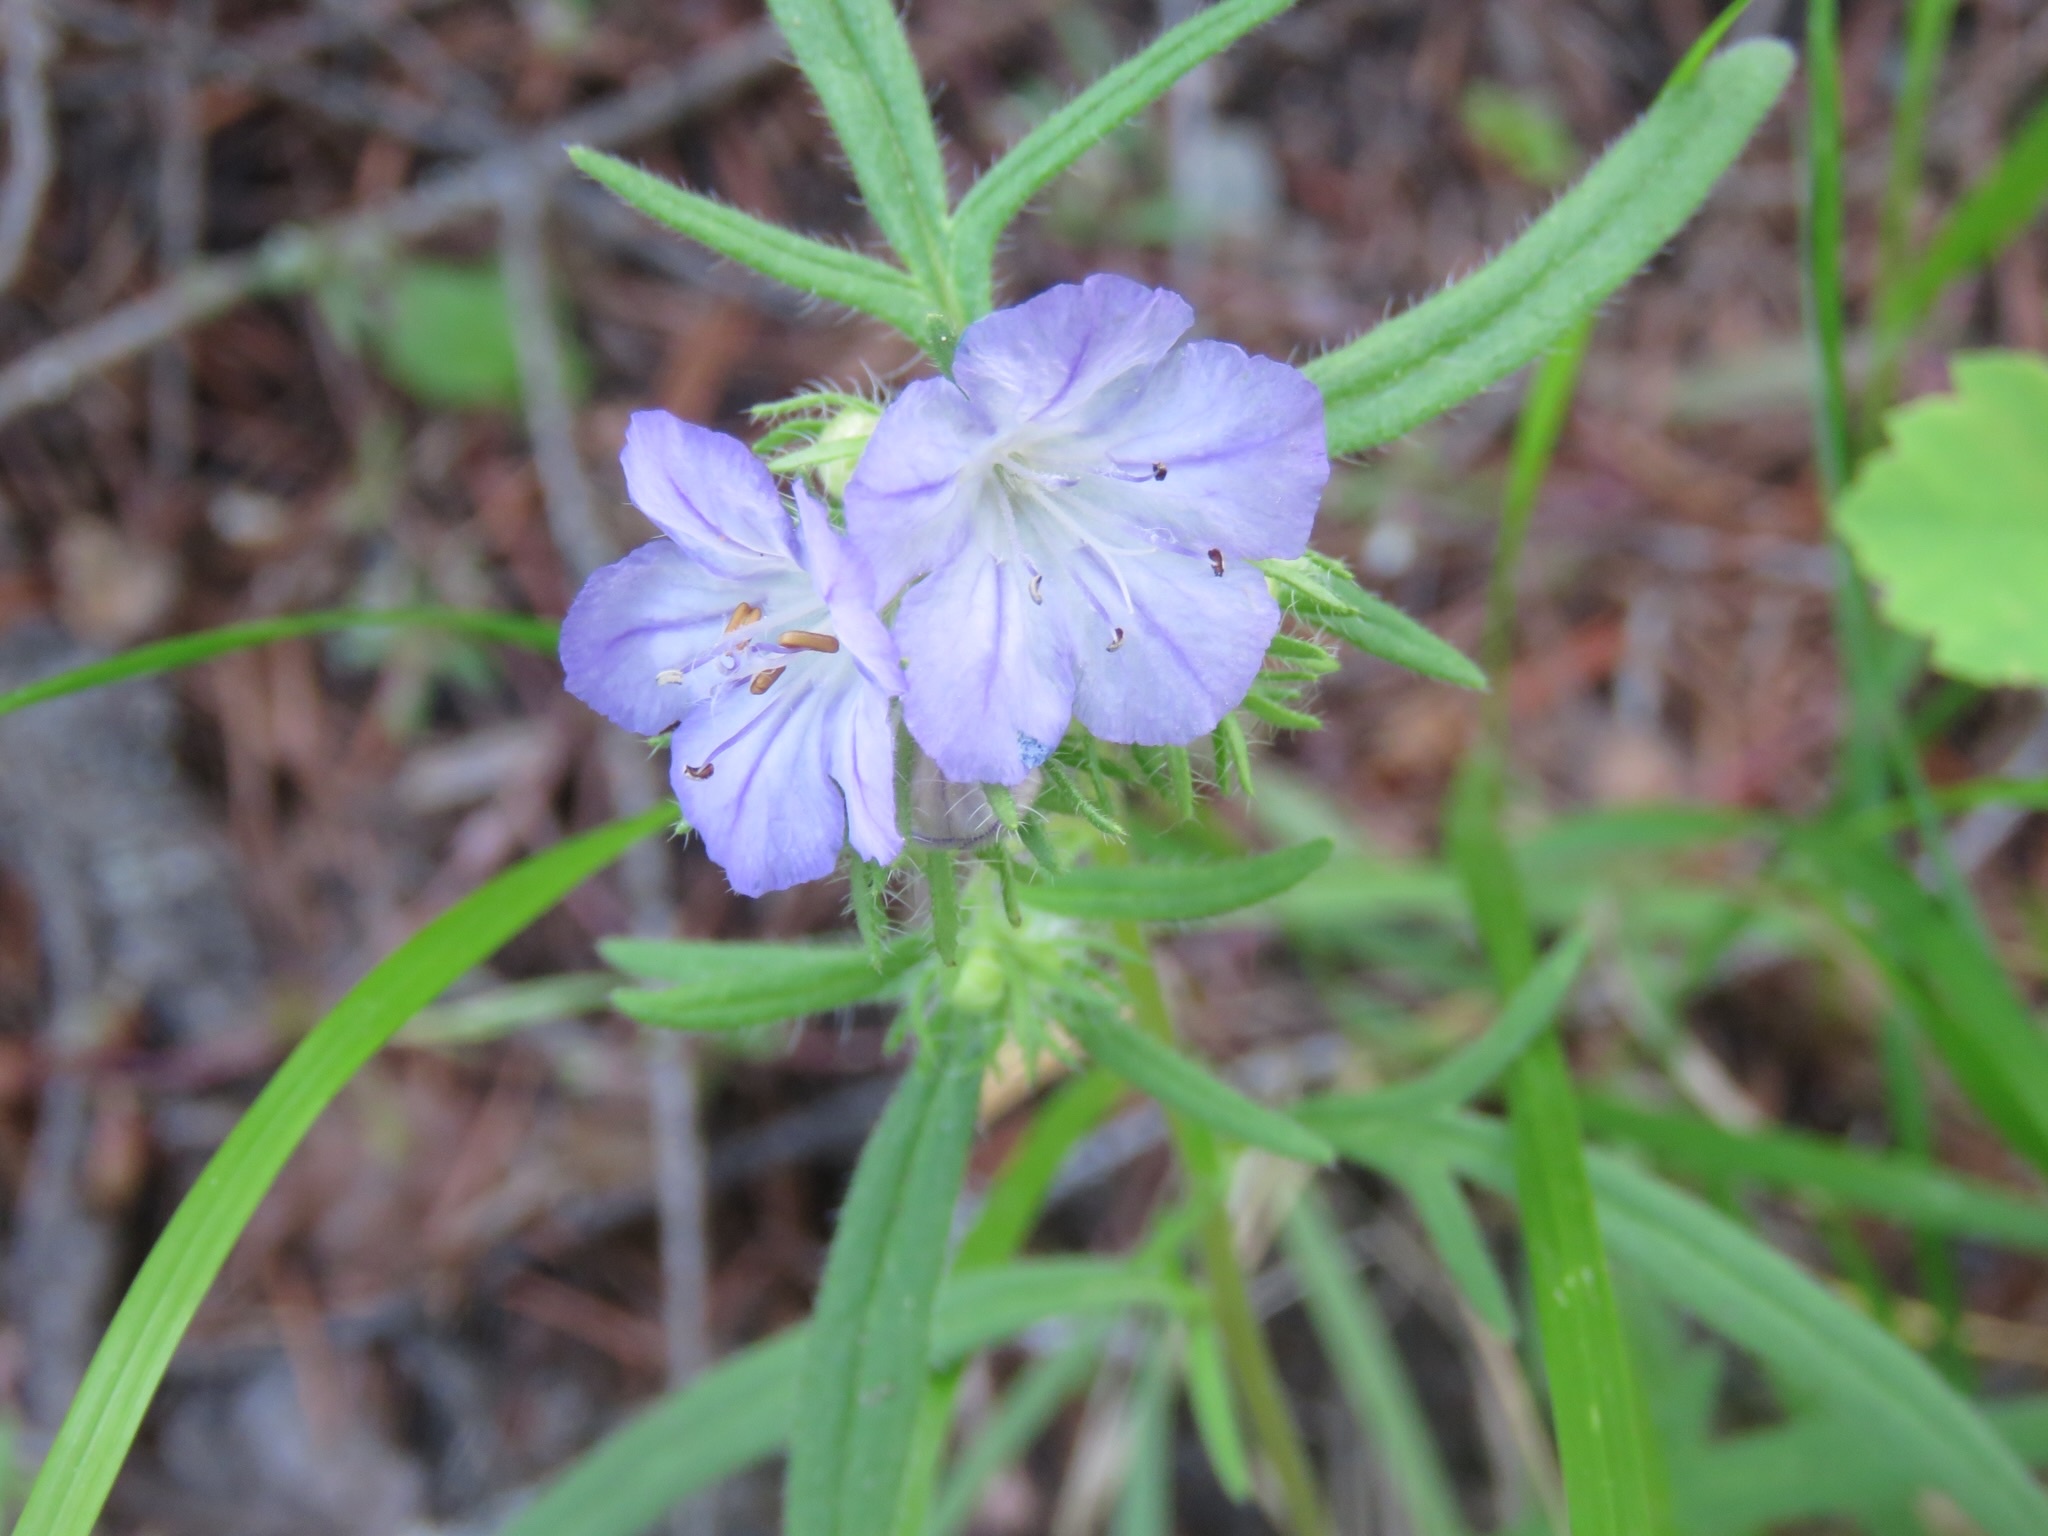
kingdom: Plantae
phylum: Tracheophyta
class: Magnoliopsida
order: Boraginales
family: Hydrophyllaceae
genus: Phacelia
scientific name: Phacelia linearis
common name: Linear-leaved phacelia
